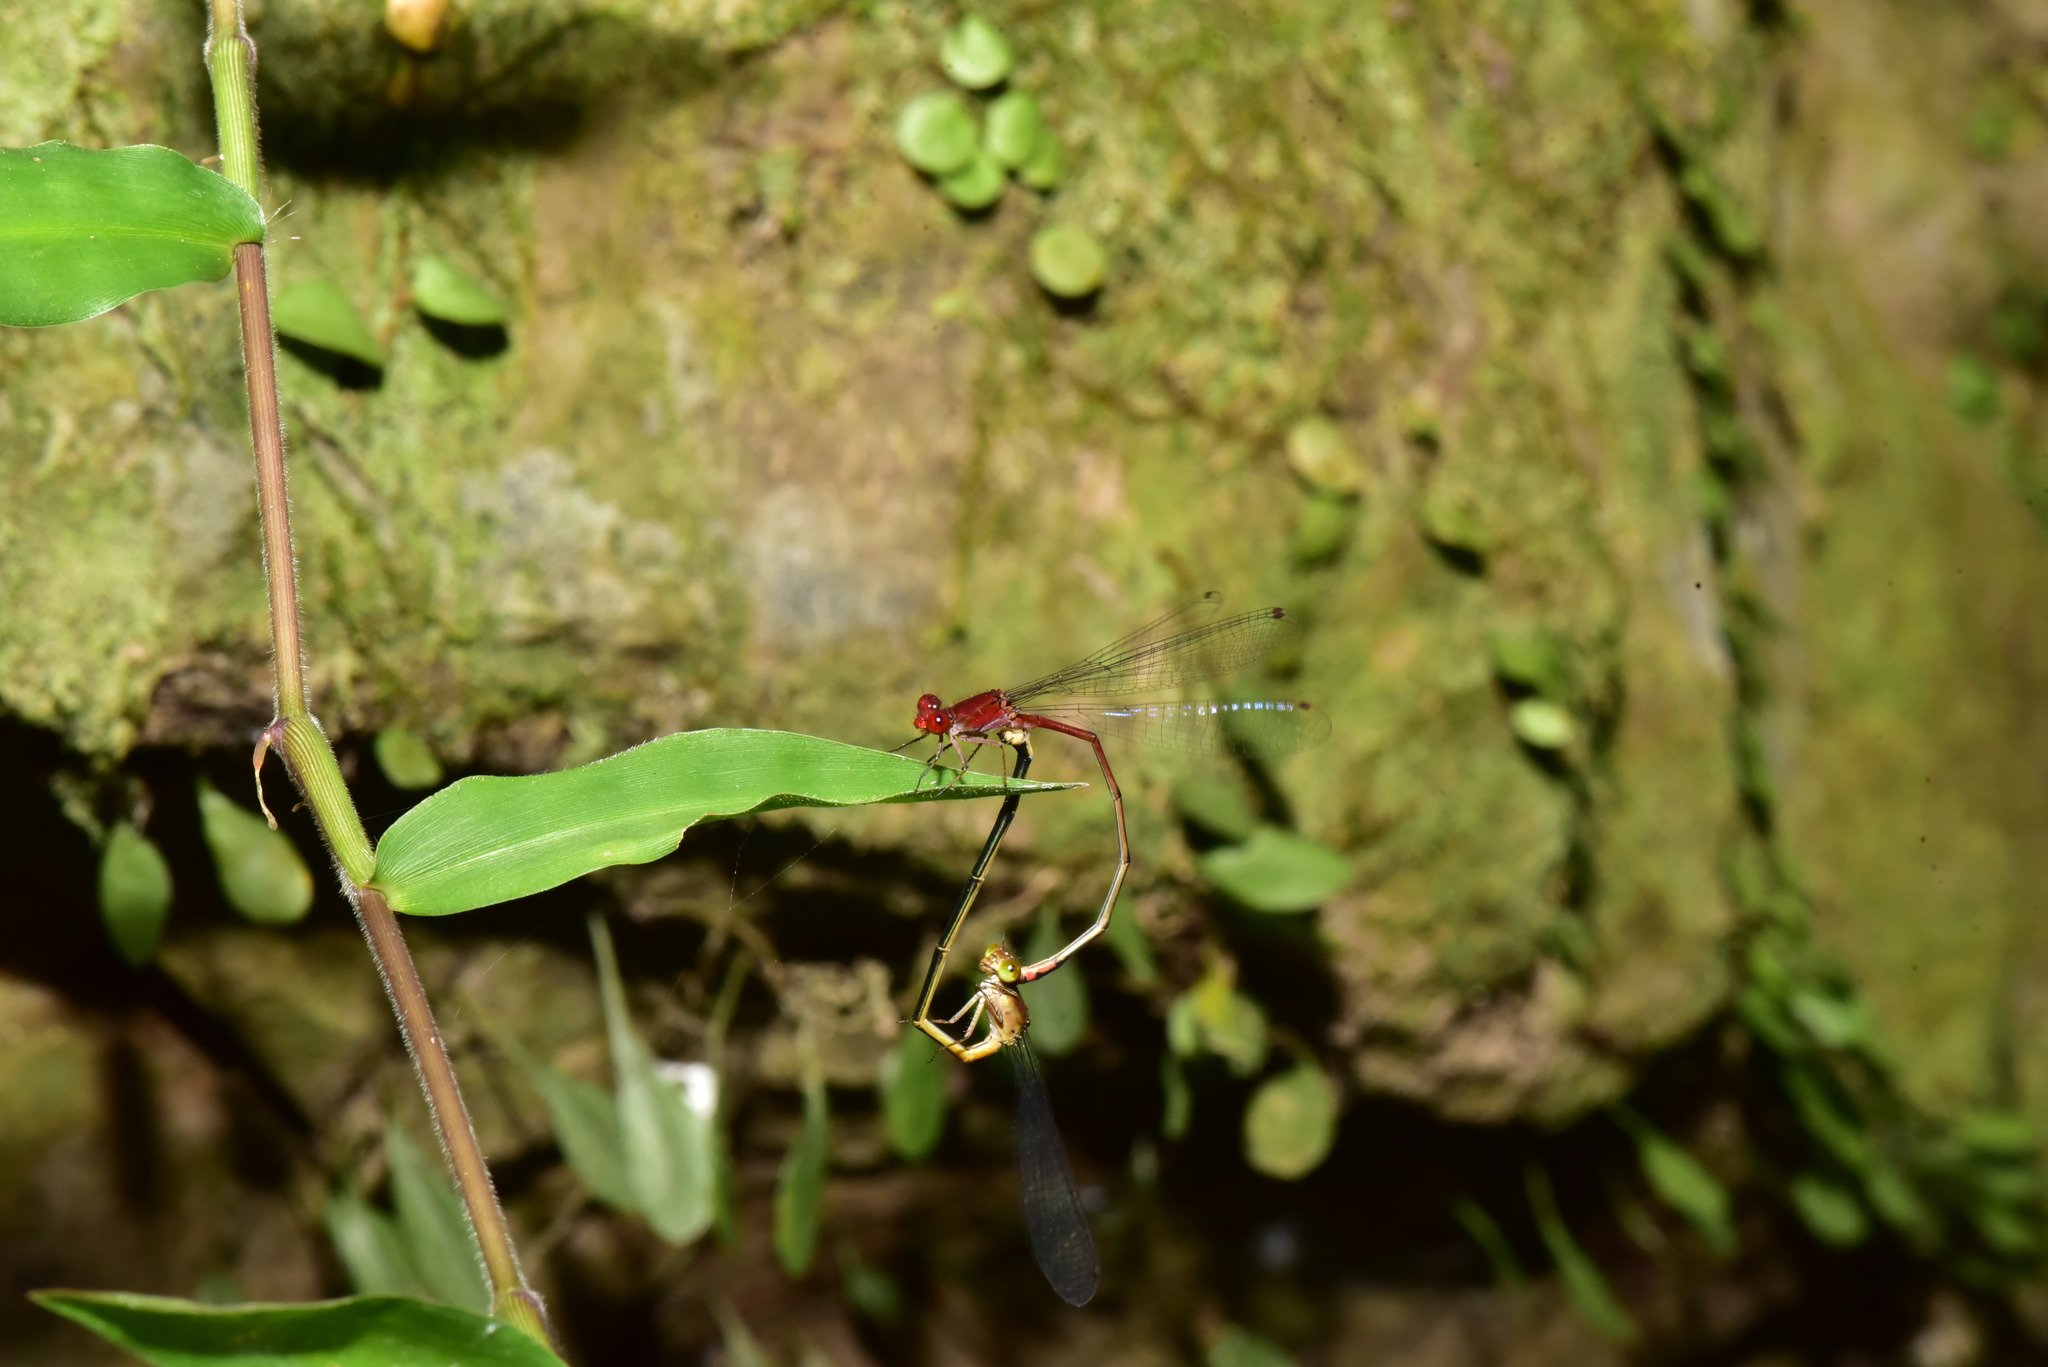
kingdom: Animalia
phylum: Arthropoda
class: Insecta
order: Odonata
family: Coenagrionidae
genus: Pseudagrion
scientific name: Pseudagrion pilidorsum
